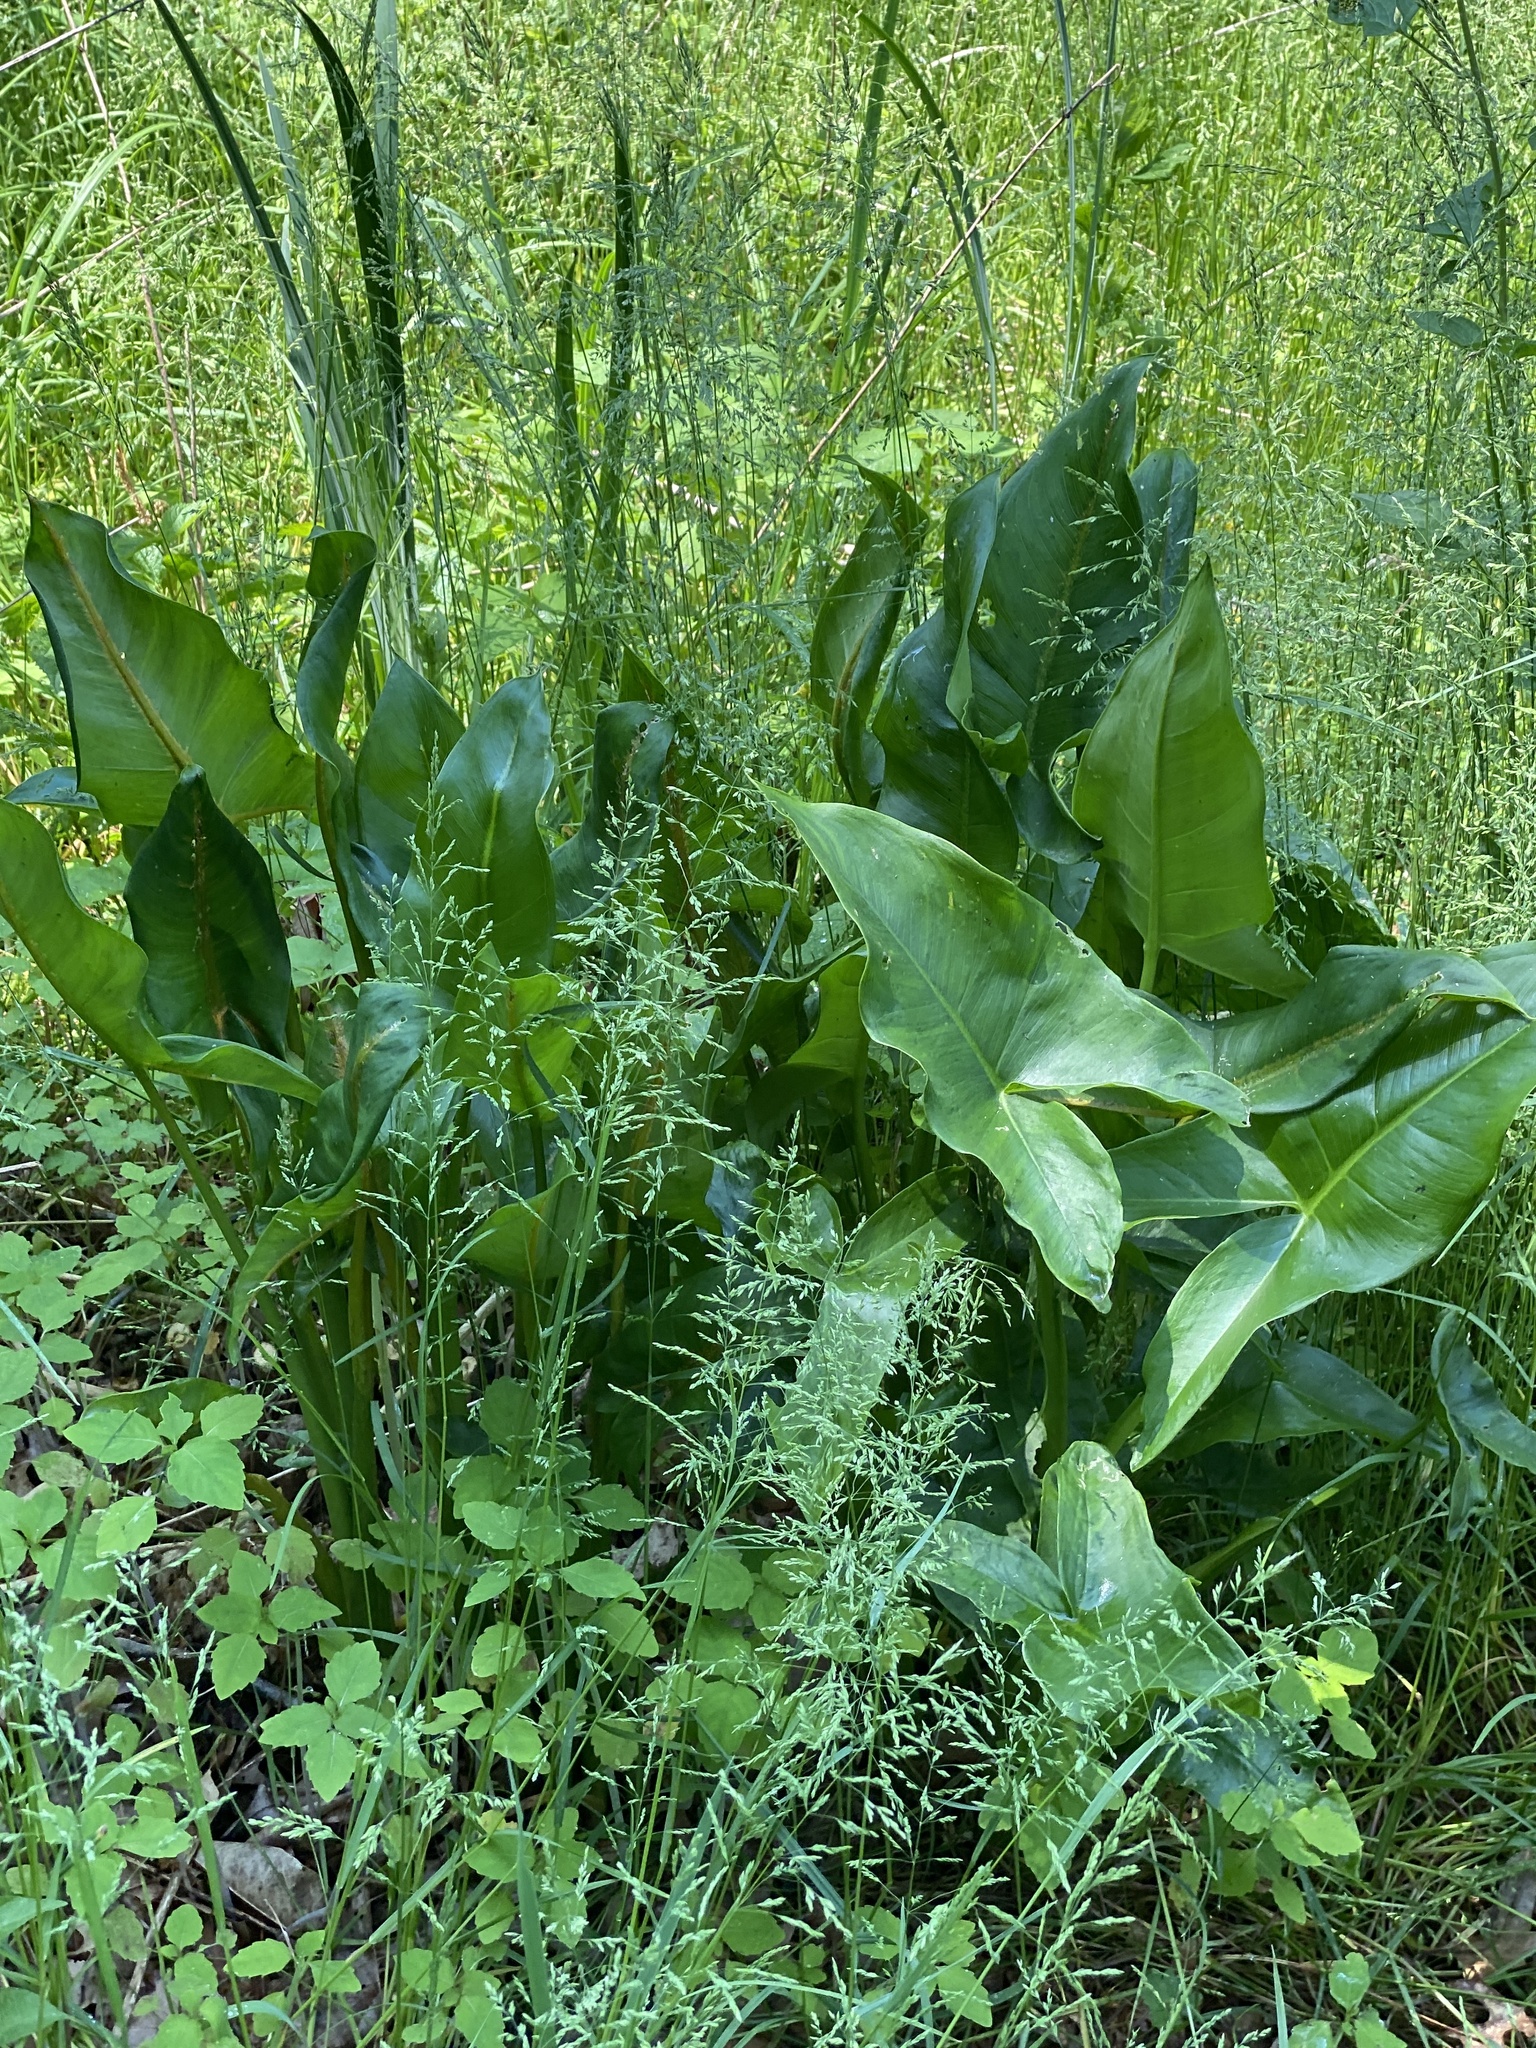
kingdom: Plantae
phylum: Tracheophyta
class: Liliopsida
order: Alismatales
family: Araceae
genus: Peltandra
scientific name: Peltandra virginica
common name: Arrow arum
